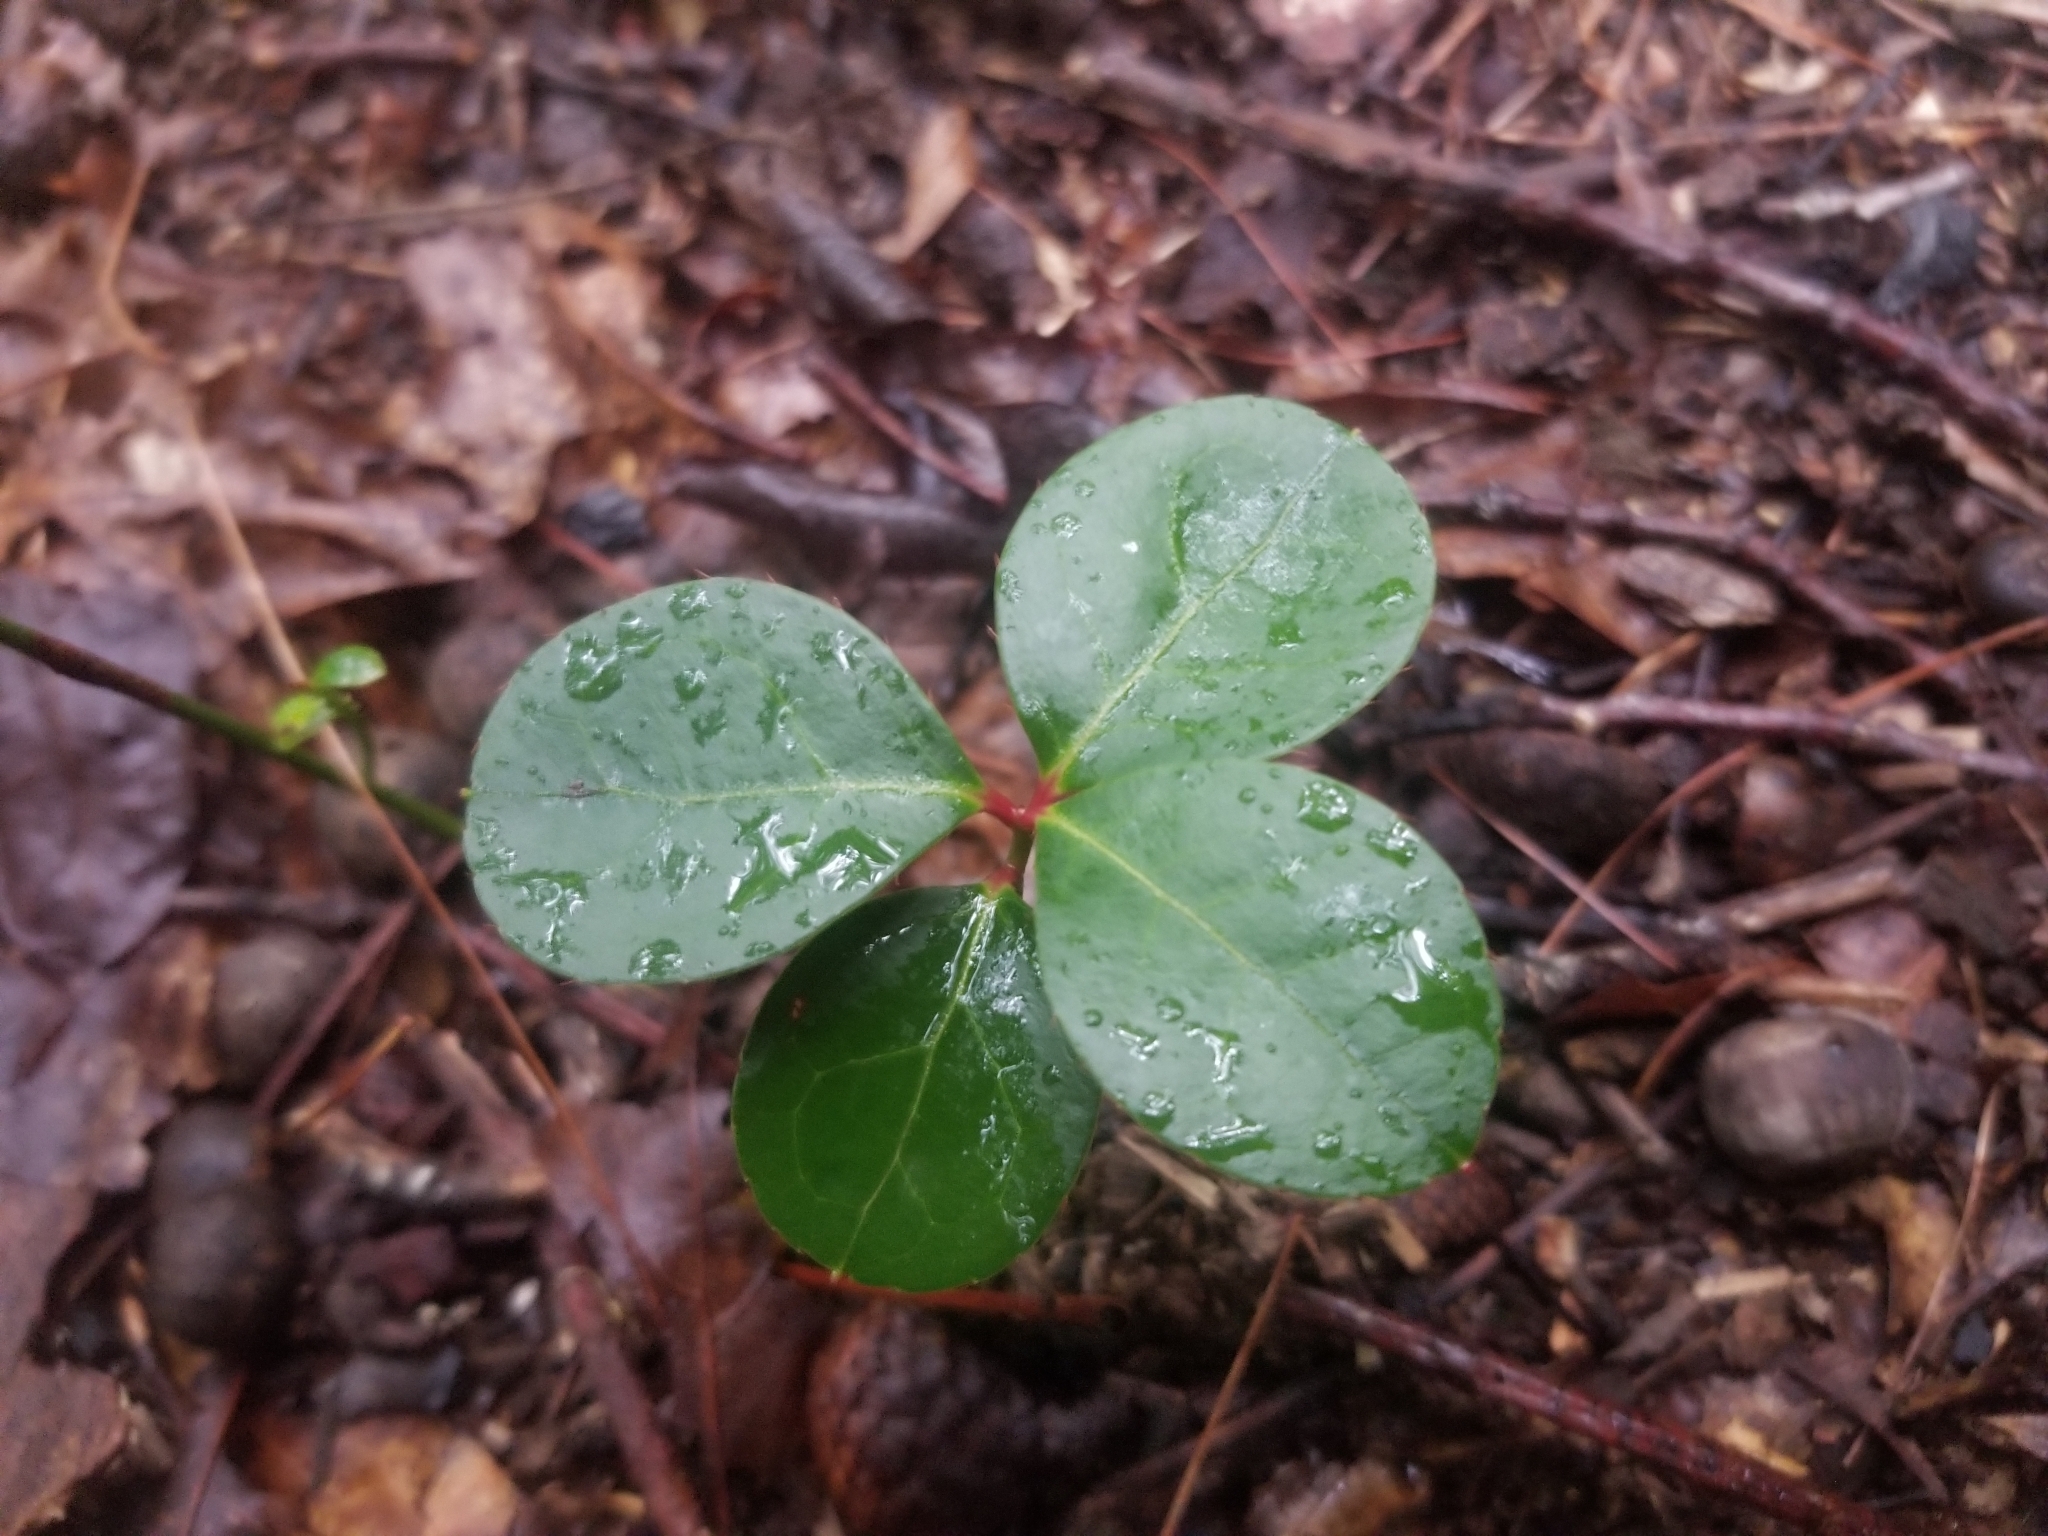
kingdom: Plantae
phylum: Tracheophyta
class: Magnoliopsida
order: Ericales
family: Ericaceae
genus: Gaultheria
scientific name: Gaultheria procumbens
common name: Checkerberry
